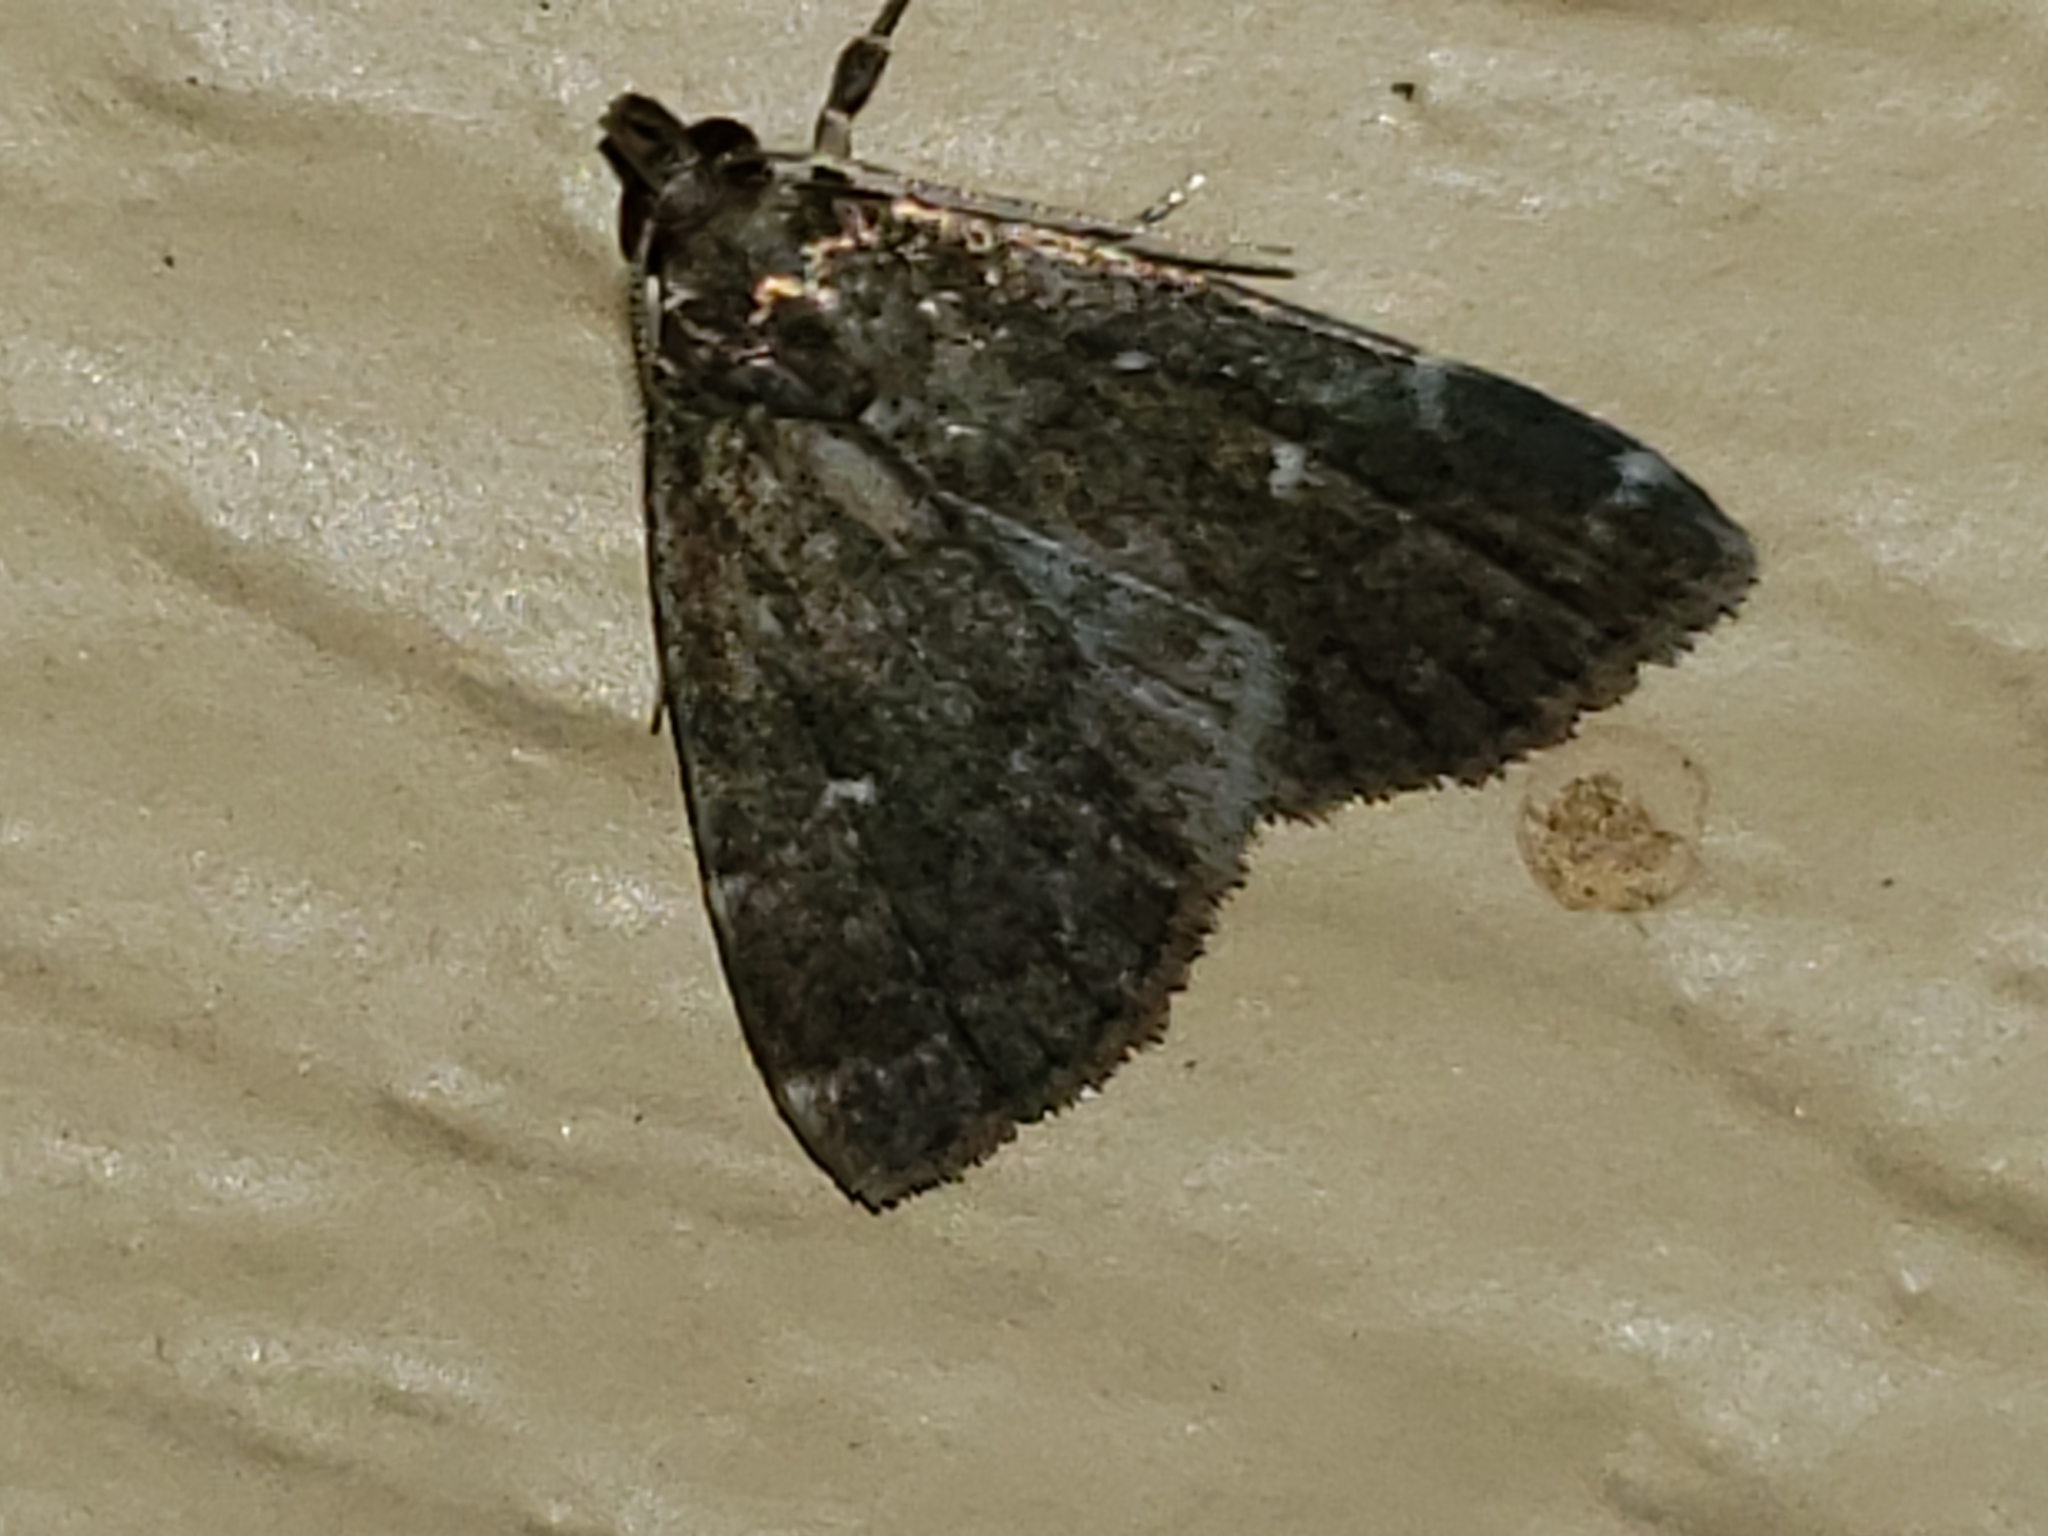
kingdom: Animalia
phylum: Arthropoda
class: Insecta
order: Lepidoptera
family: Erebidae
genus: Idia
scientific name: Idia julia
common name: Julia's idia moth
